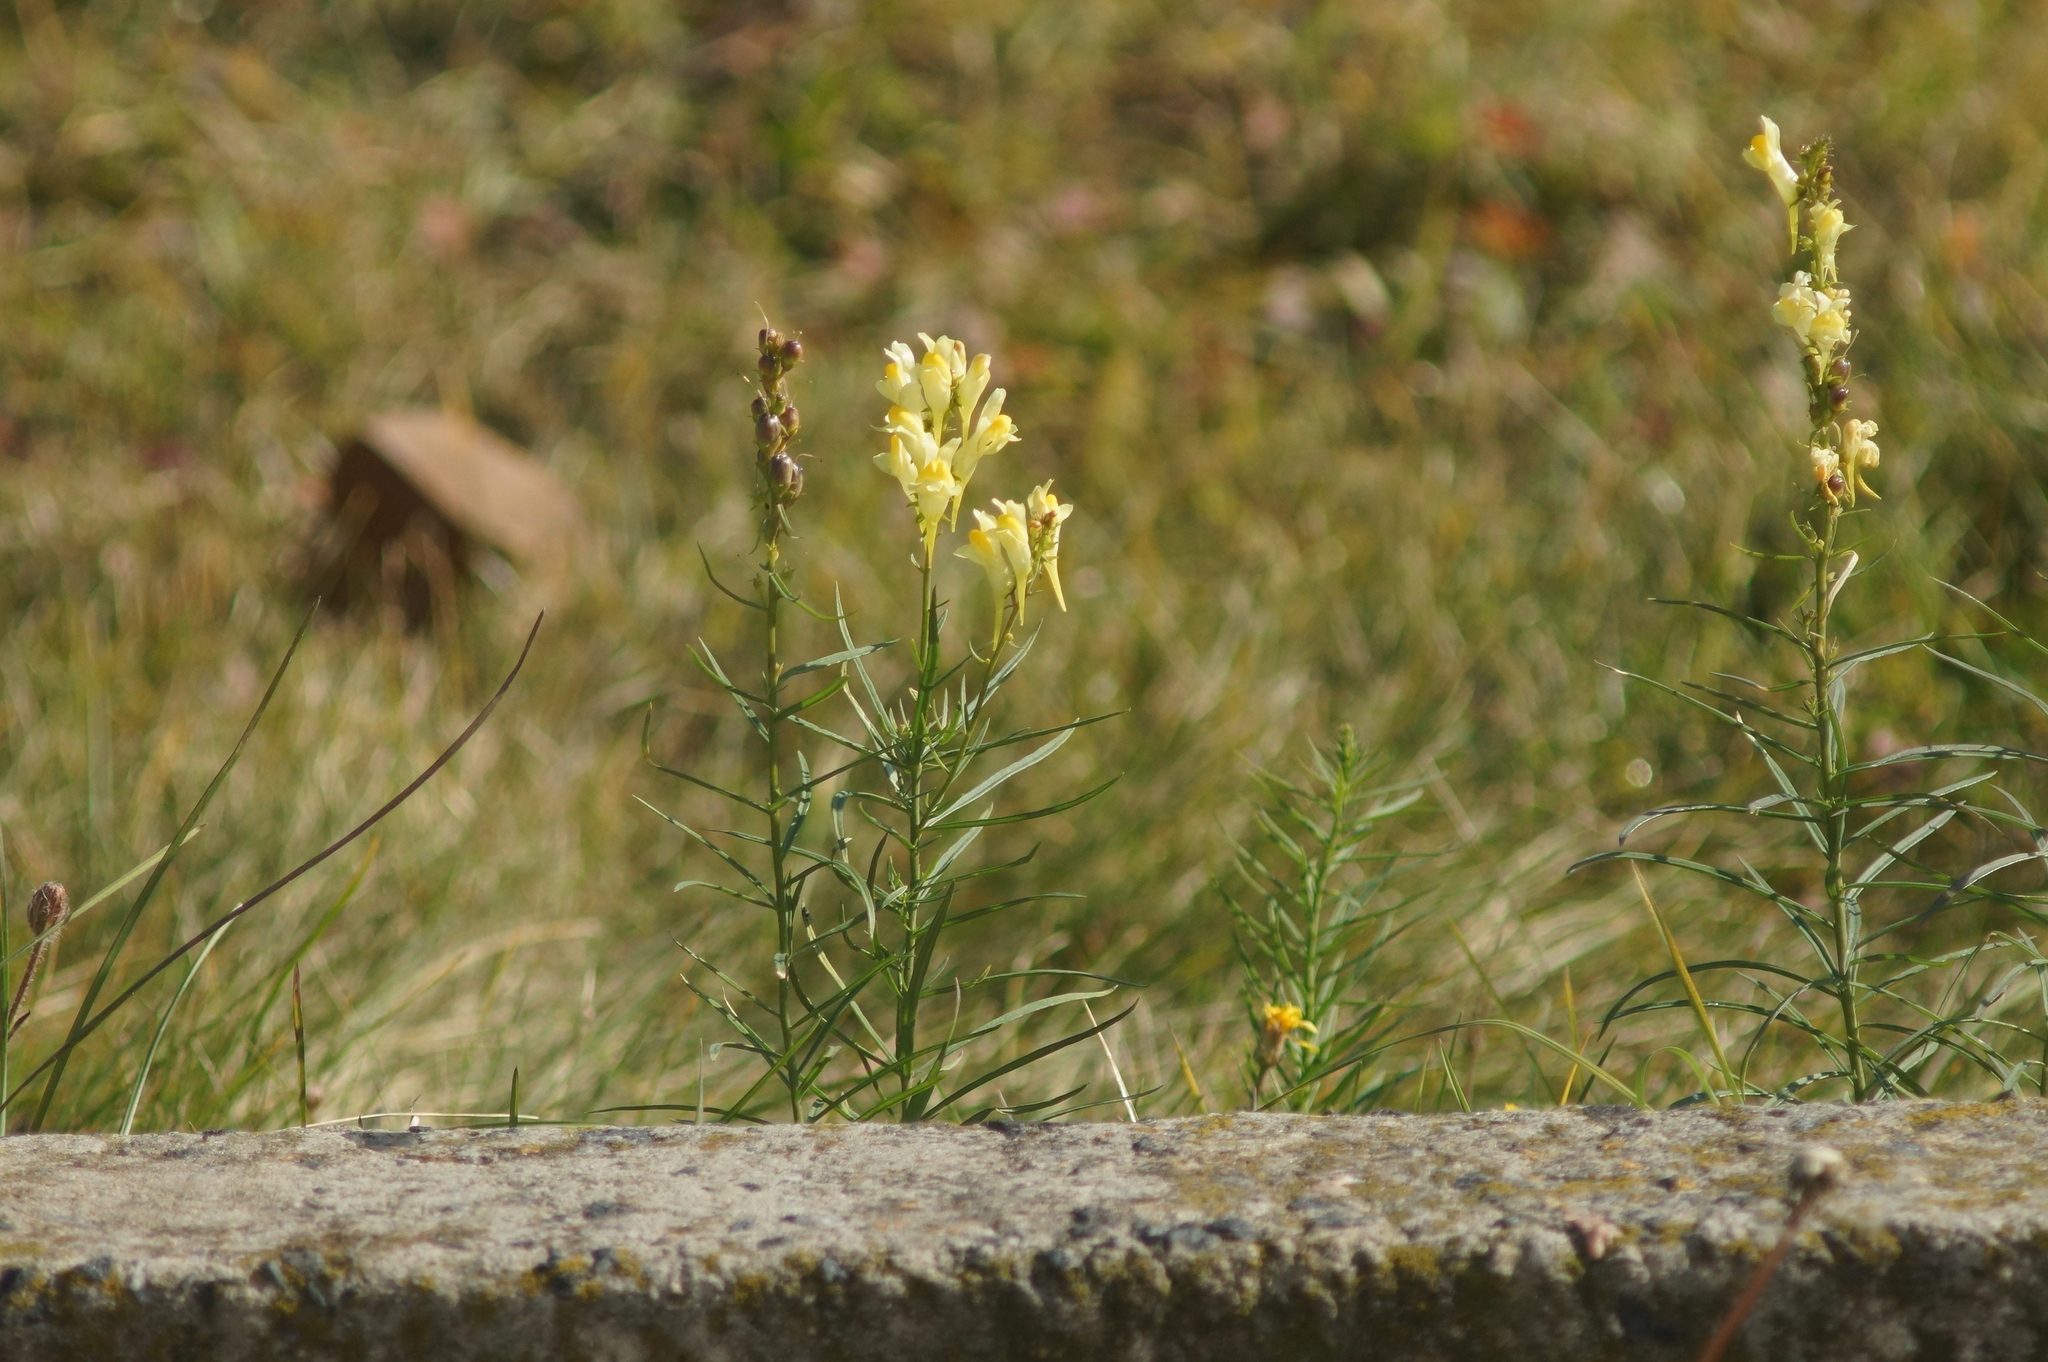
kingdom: Plantae
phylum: Tracheophyta
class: Magnoliopsida
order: Lamiales
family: Plantaginaceae
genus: Linaria
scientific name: Linaria vulgaris
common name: Butter and eggs
